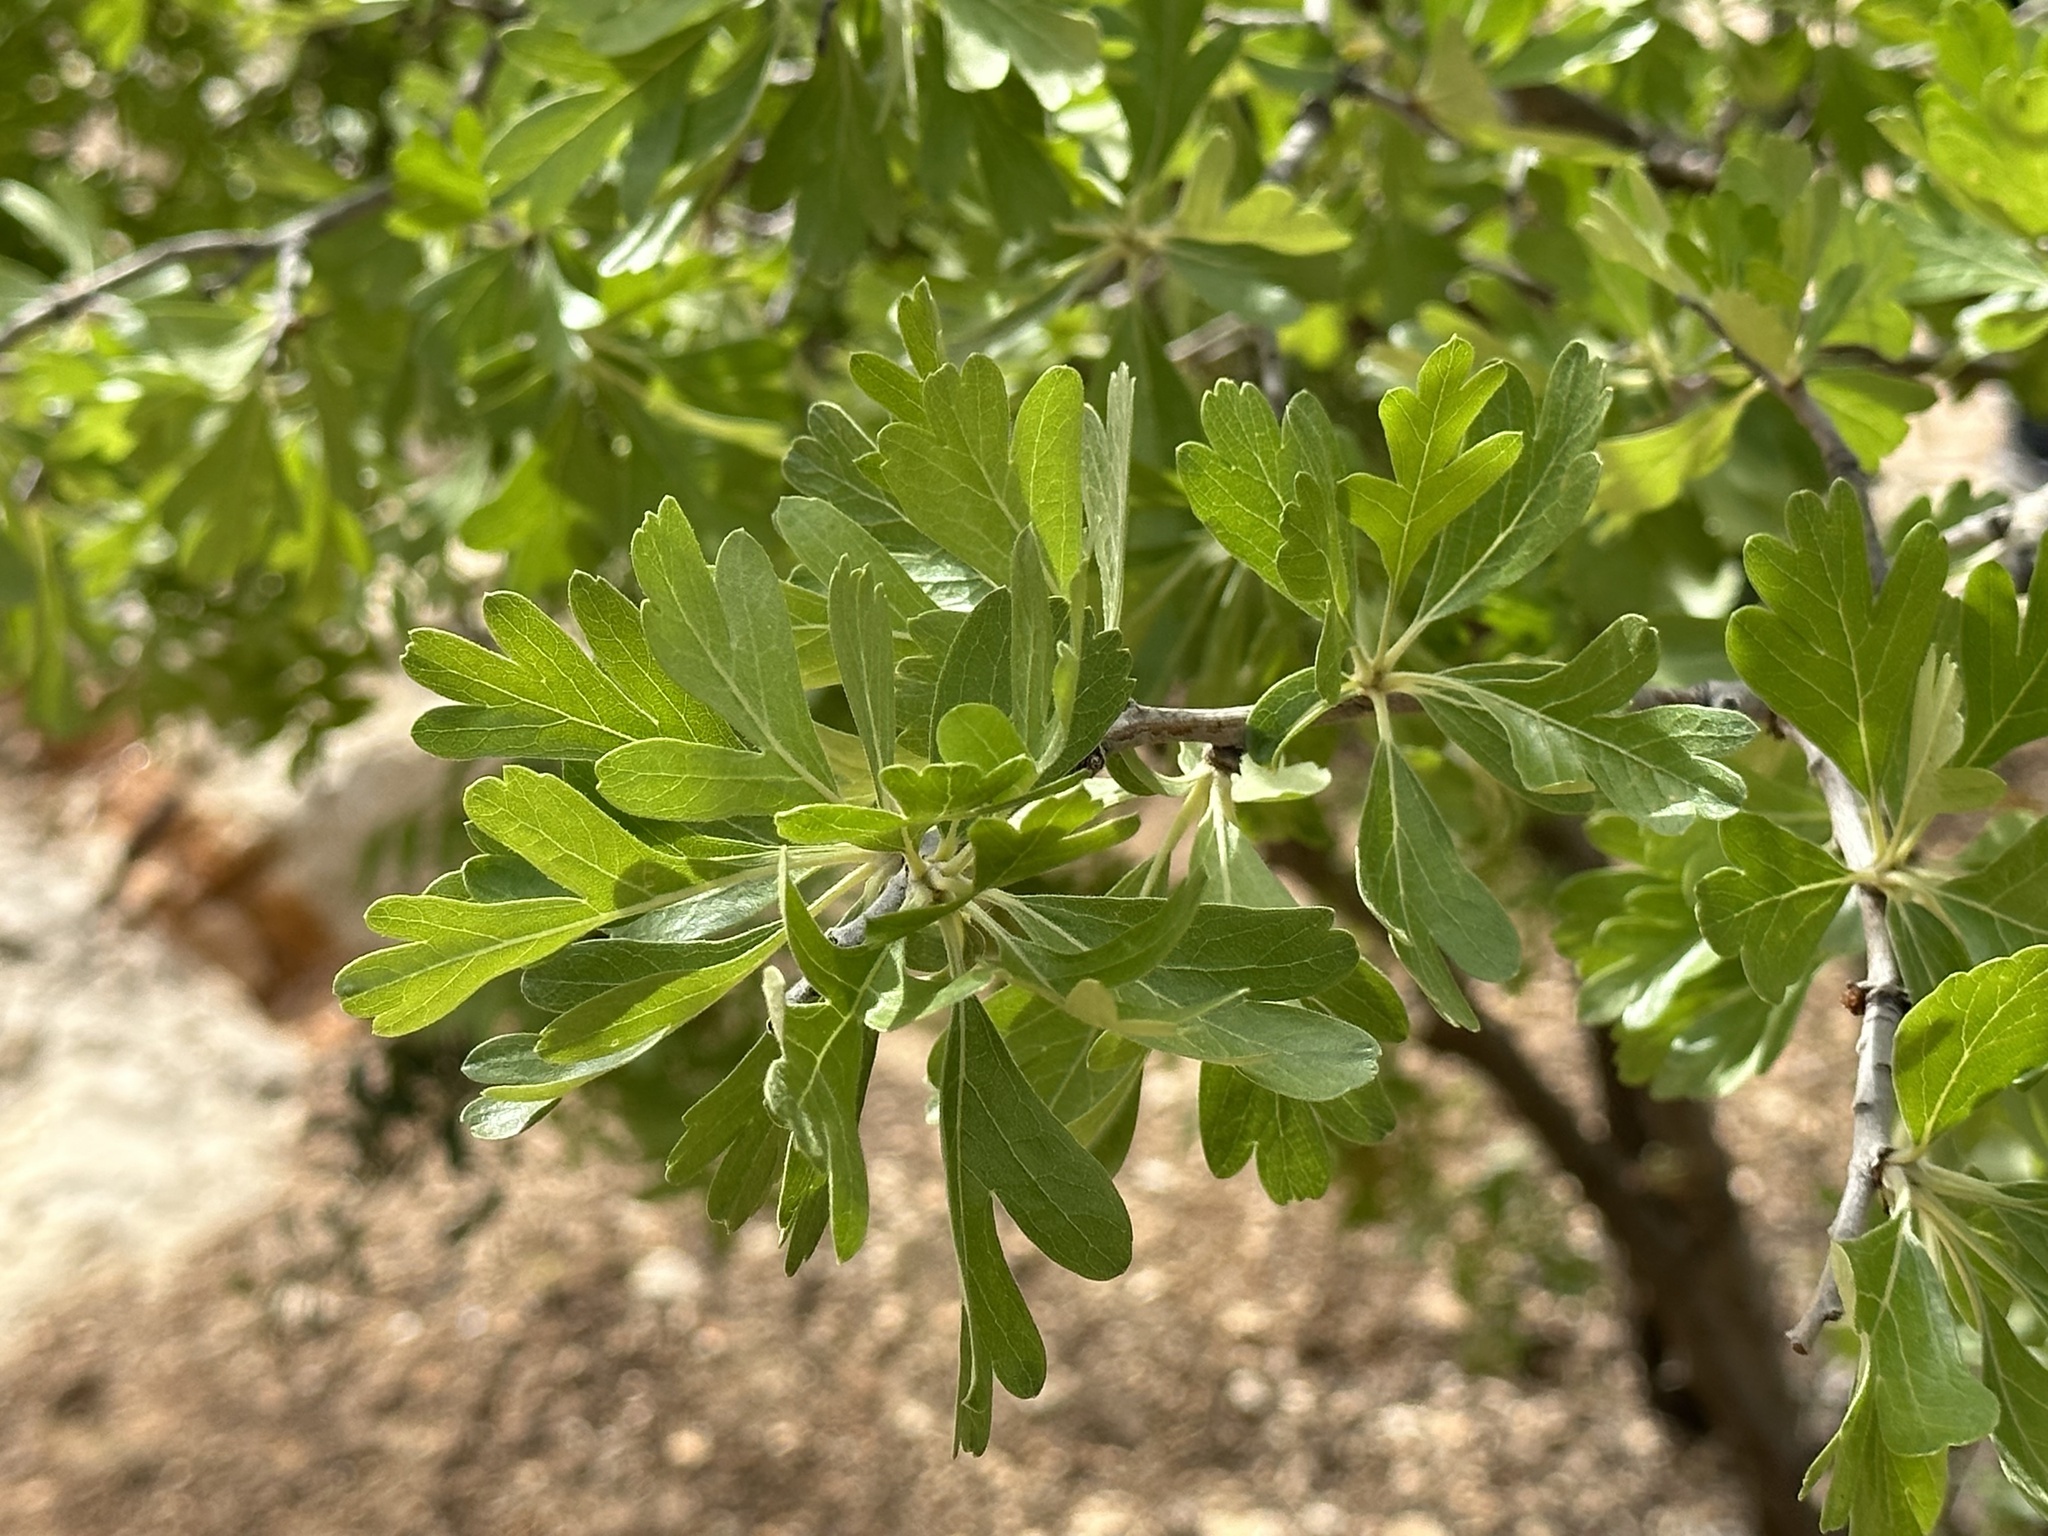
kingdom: Plantae
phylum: Tracheophyta
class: Magnoliopsida
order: Rosales
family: Rosaceae
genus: Crataegus
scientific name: Crataegus azarolus
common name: Azarole
